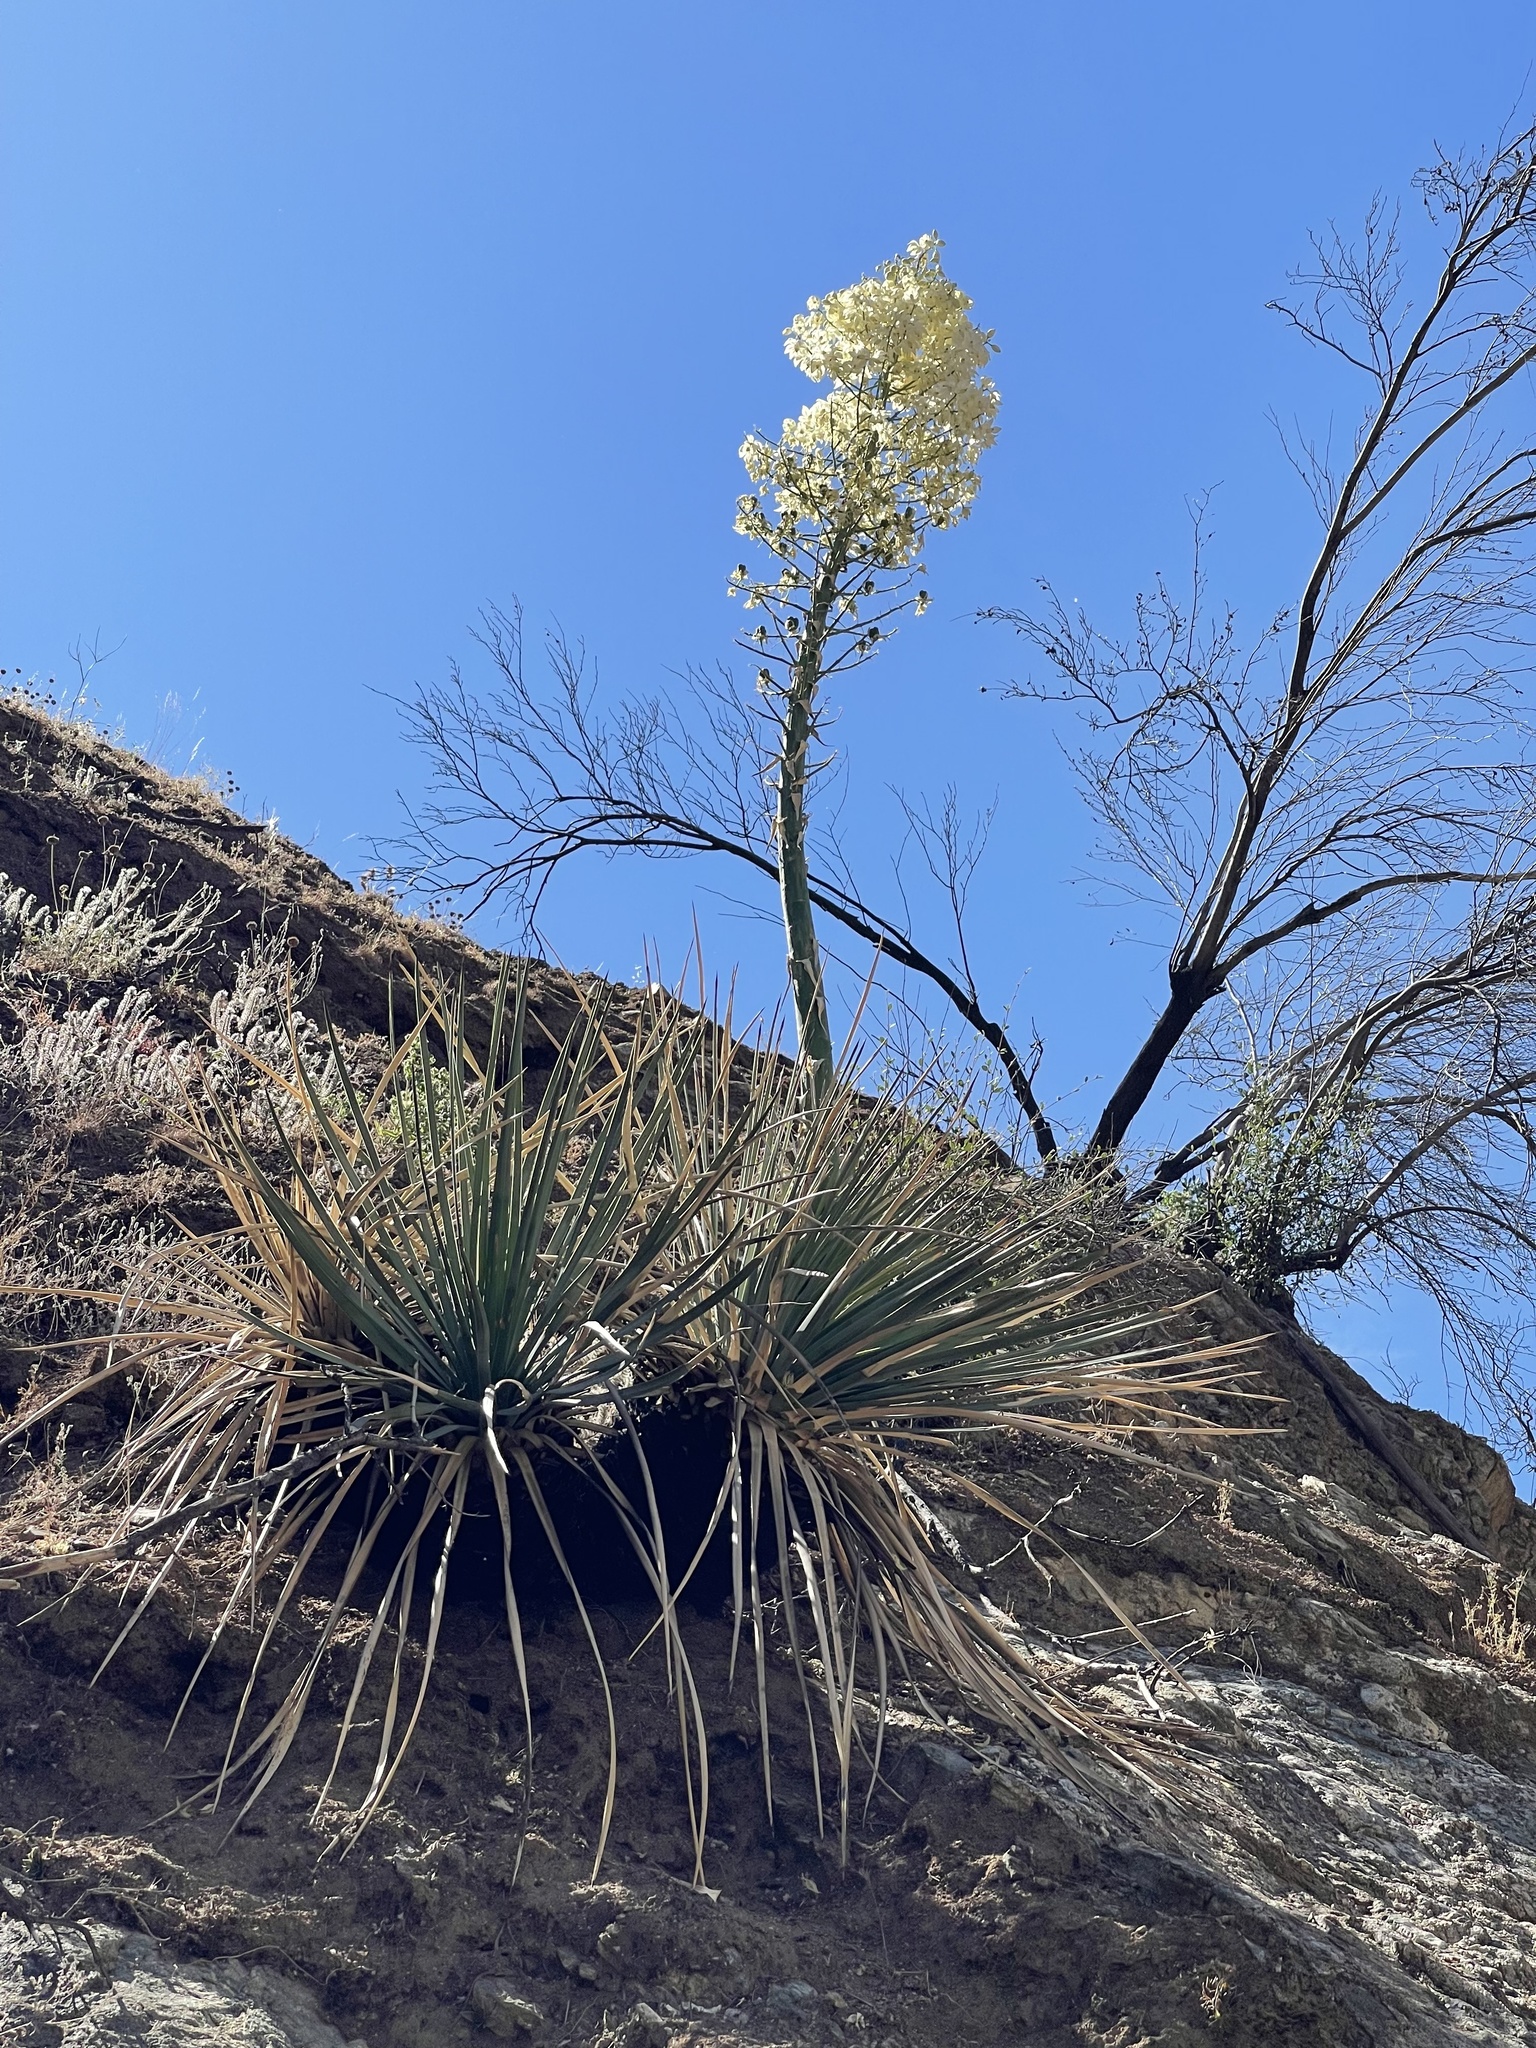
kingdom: Plantae
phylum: Tracheophyta
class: Liliopsida
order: Asparagales
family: Asparagaceae
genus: Hesperoyucca
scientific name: Hesperoyucca whipplei
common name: Our lord's-candle
